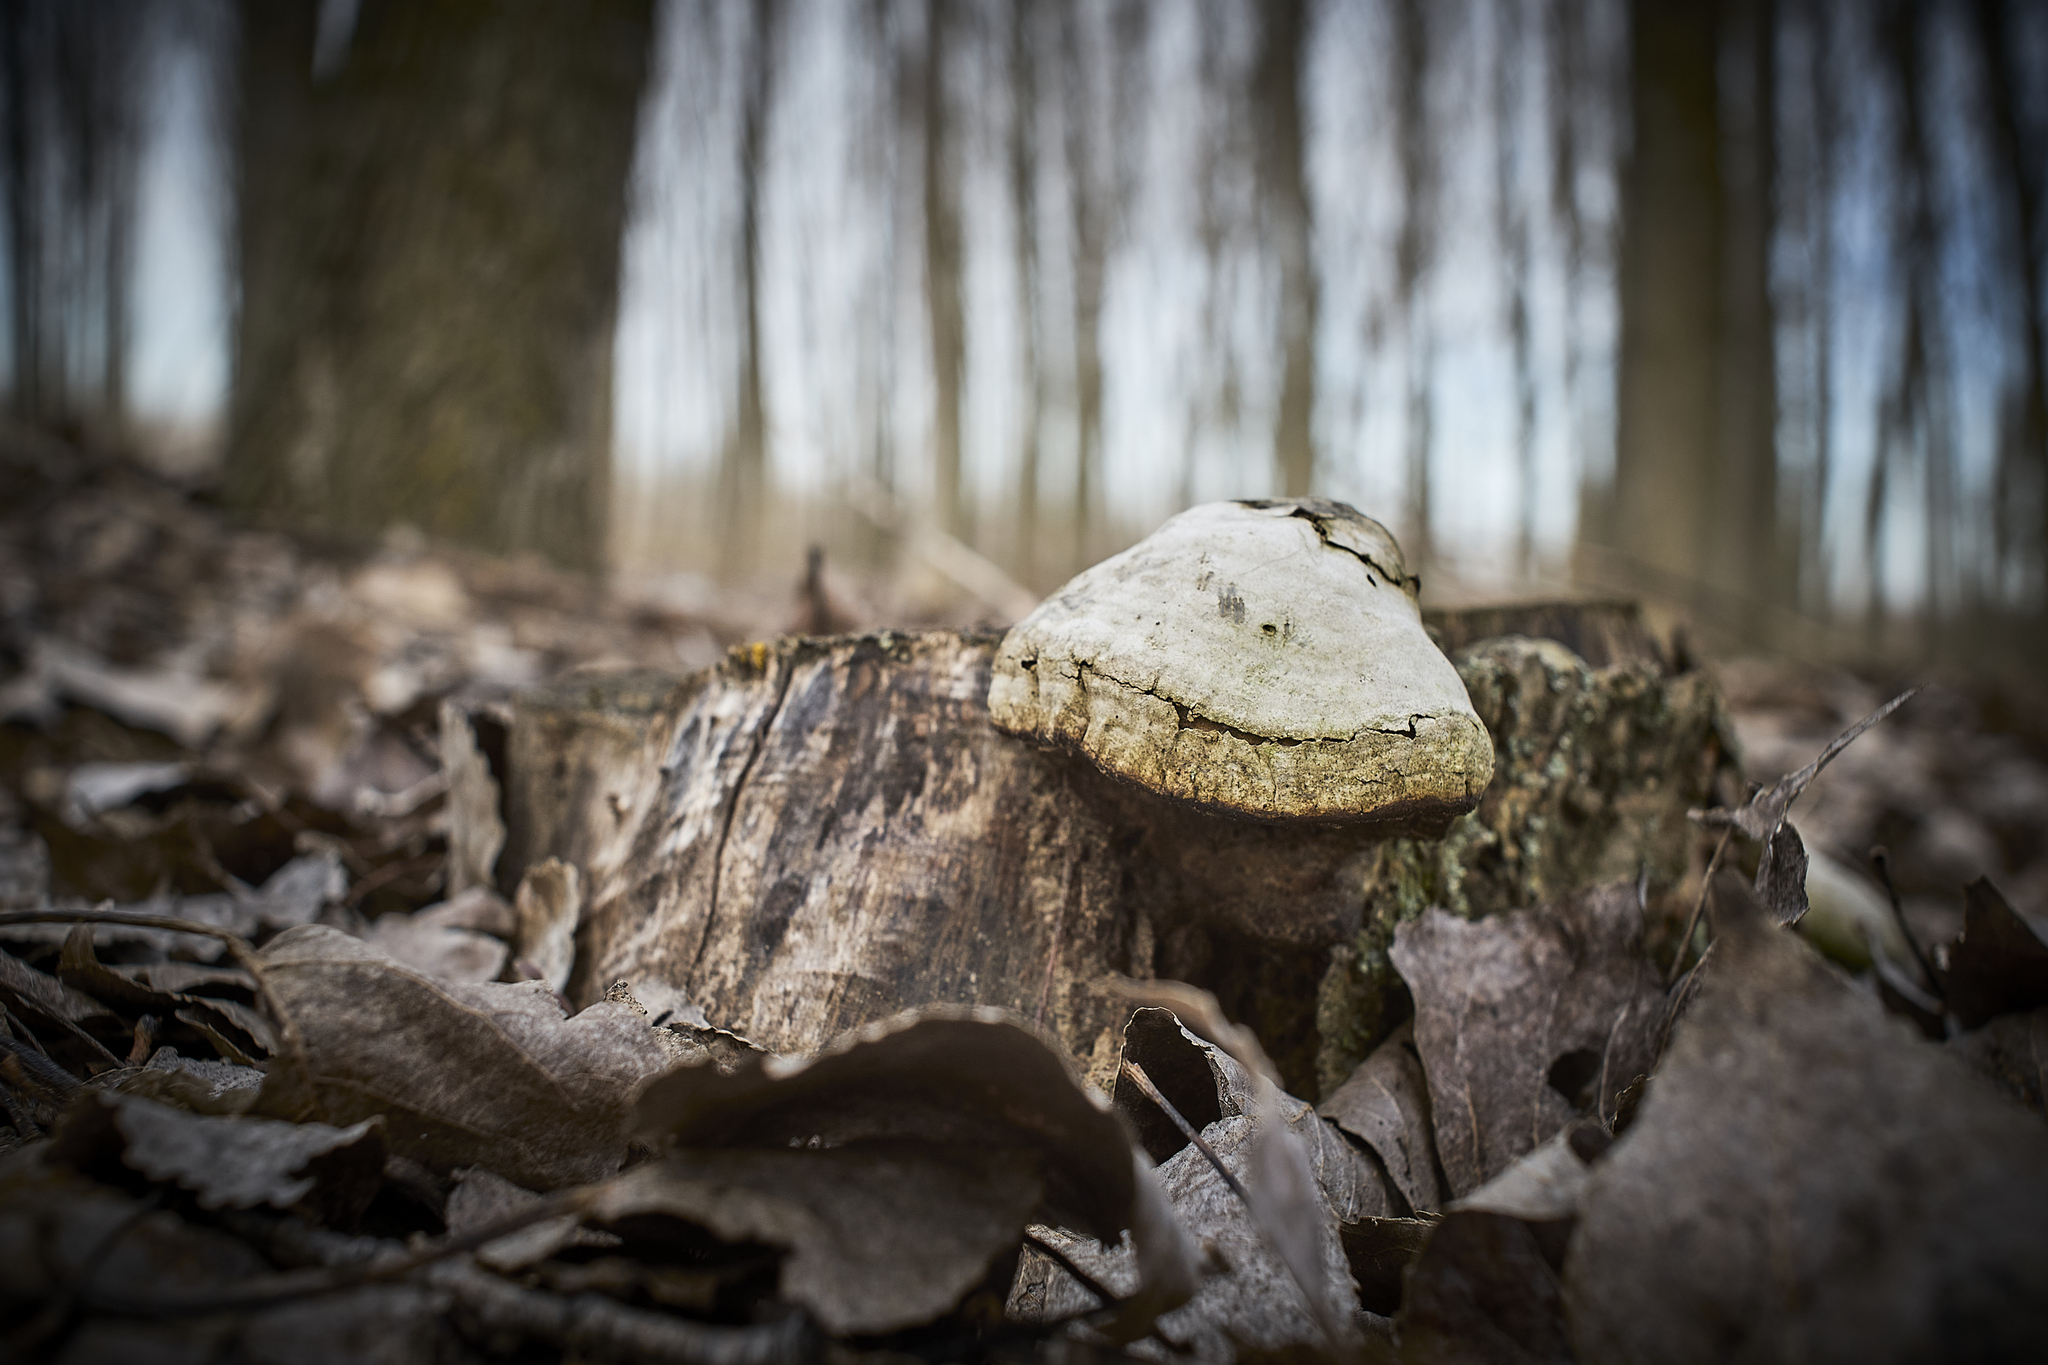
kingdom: Fungi
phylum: Basidiomycota
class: Agaricomycetes
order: Polyporales
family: Polyporaceae
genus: Fomes
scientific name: Fomes fomentarius
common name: Hoof fungus
